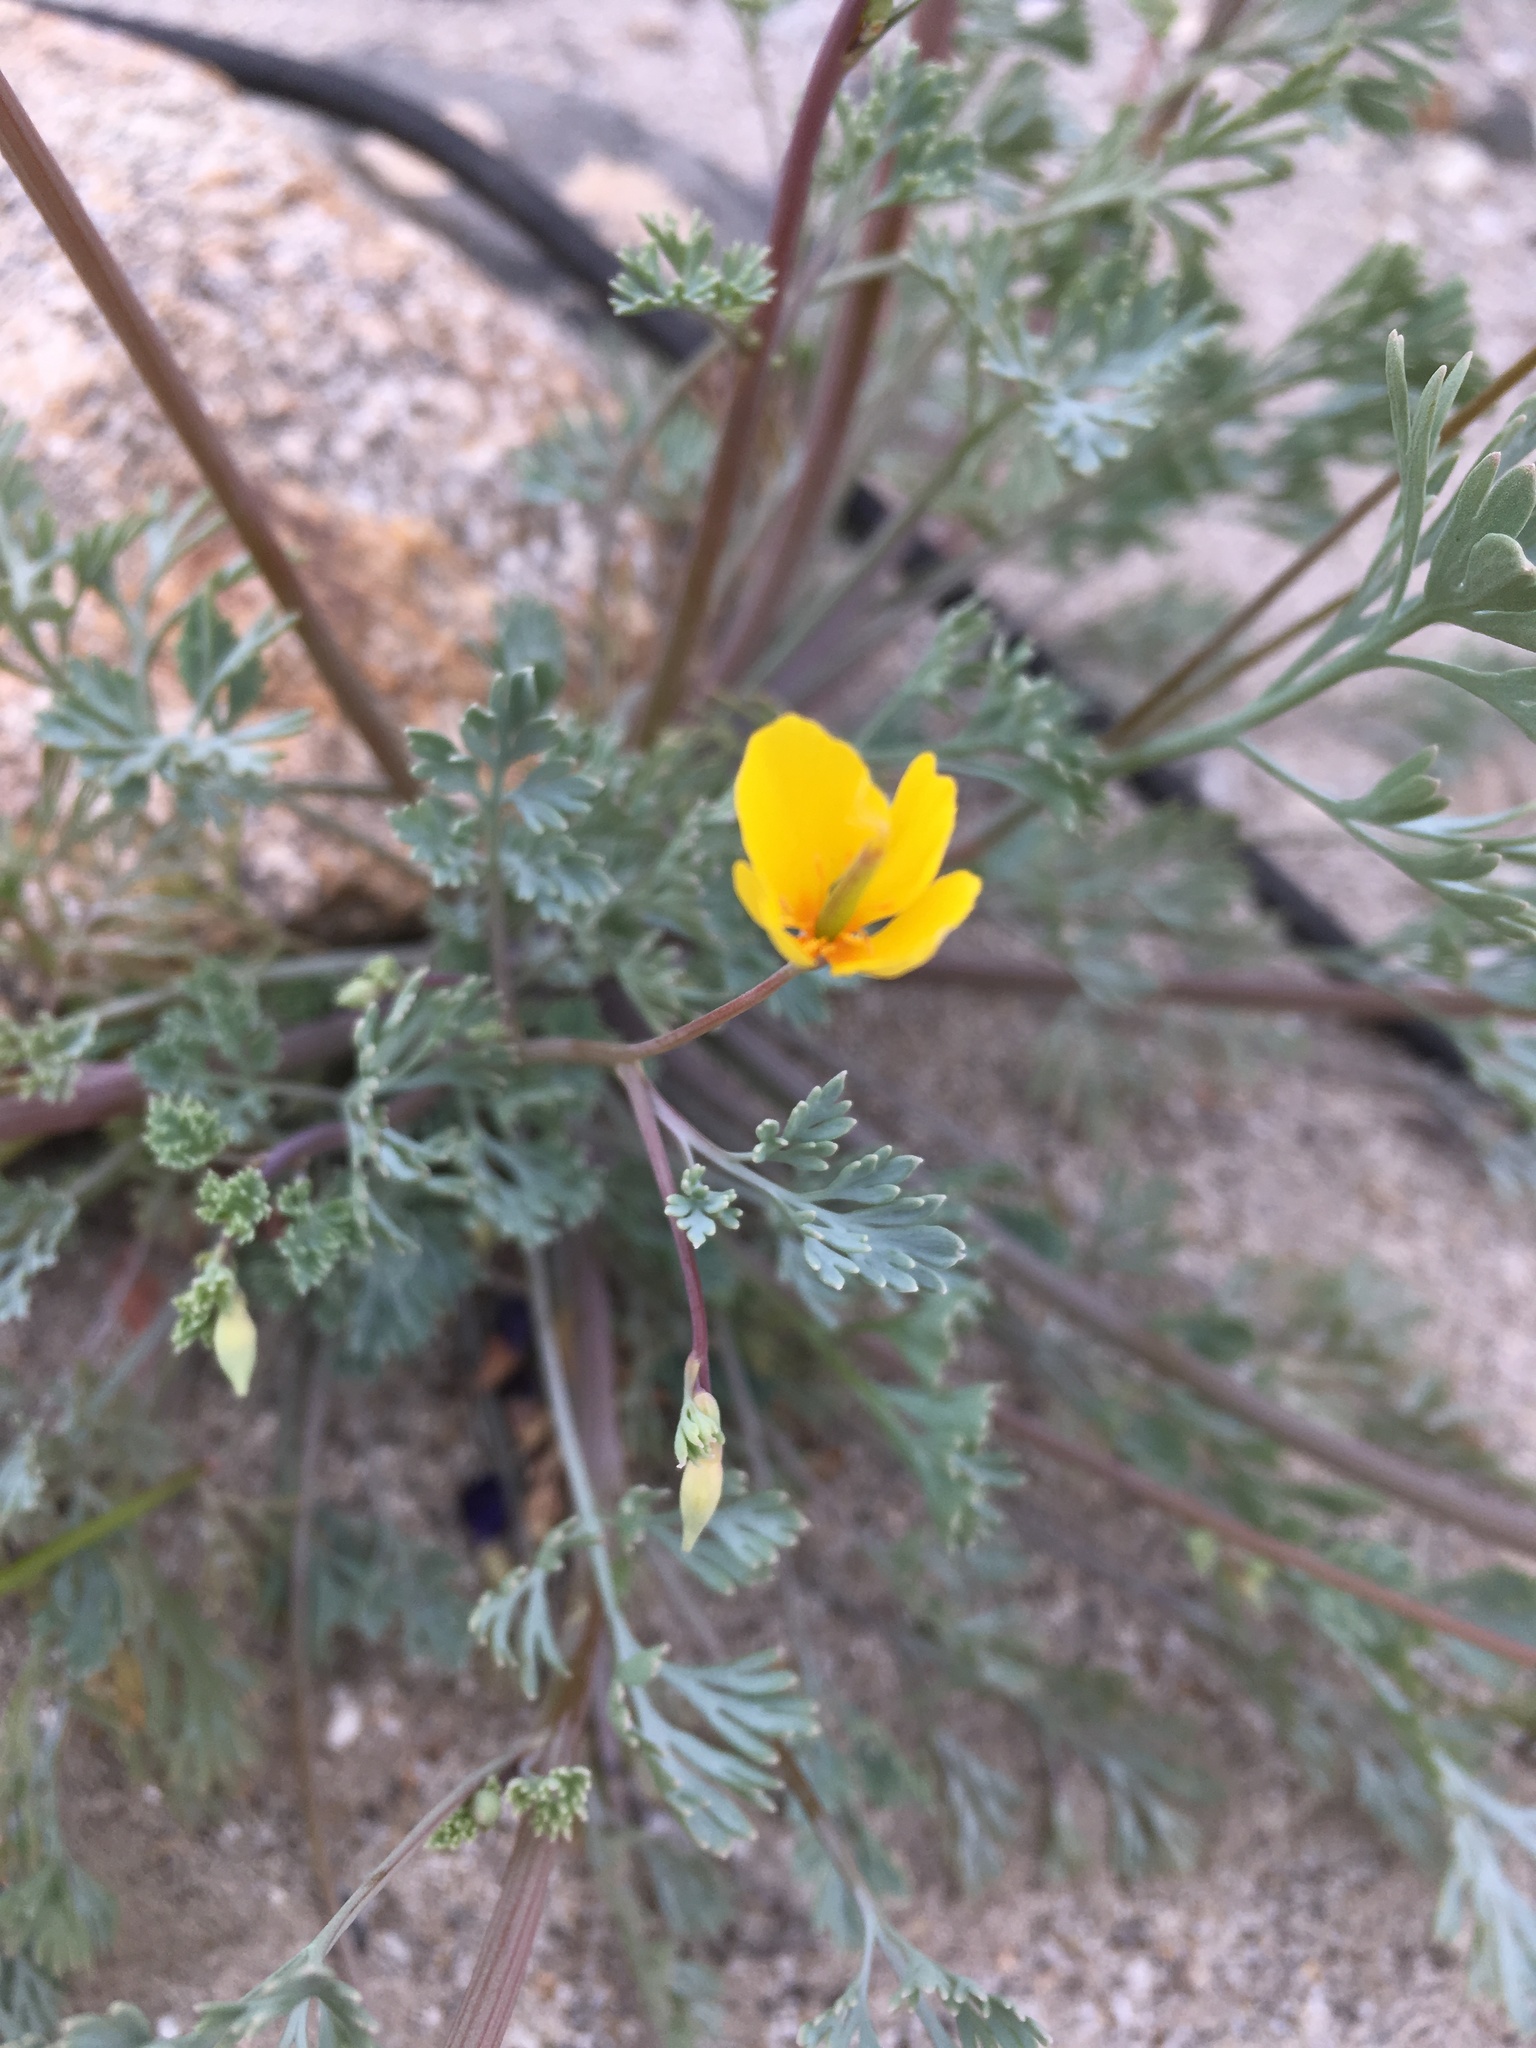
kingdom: Plantae
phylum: Tracheophyta
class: Magnoliopsida
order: Ranunculales
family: Papaveraceae
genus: Eschscholzia
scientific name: Eschscholzia minutiflora
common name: Small-flower california-poppy
